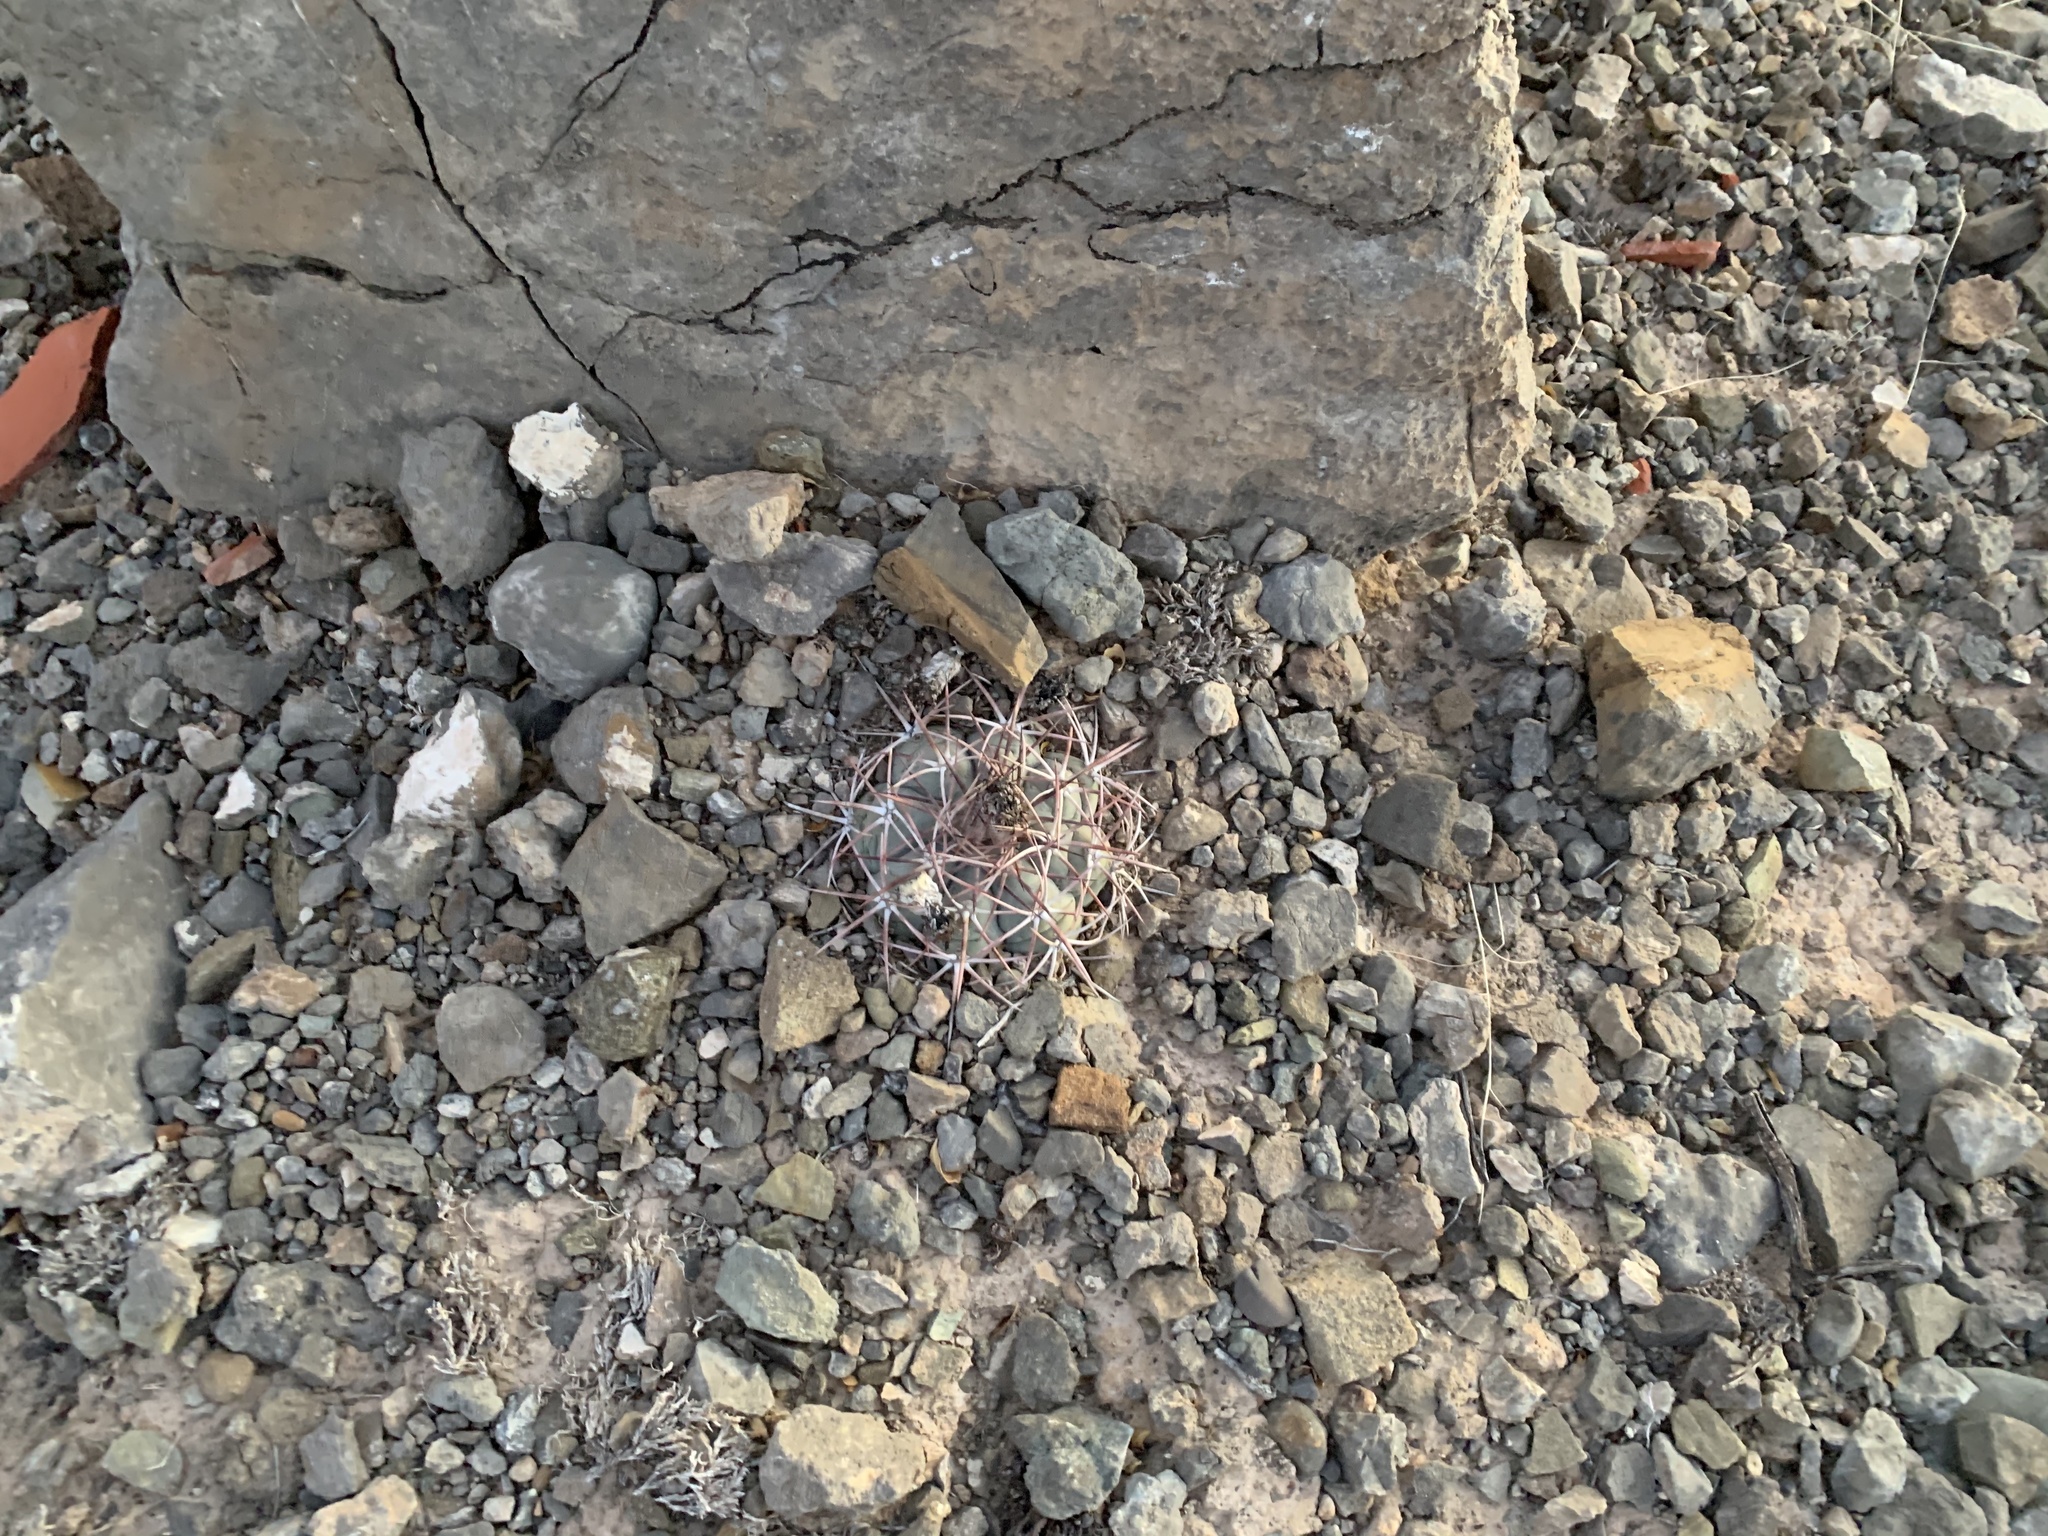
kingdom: Plantae
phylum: Tracheophyta
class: Magnoliopsida
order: Caryophyllales
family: Cactaceae
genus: Echinocactus
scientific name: Echinocactus horizonthalonius
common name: Devilshead
